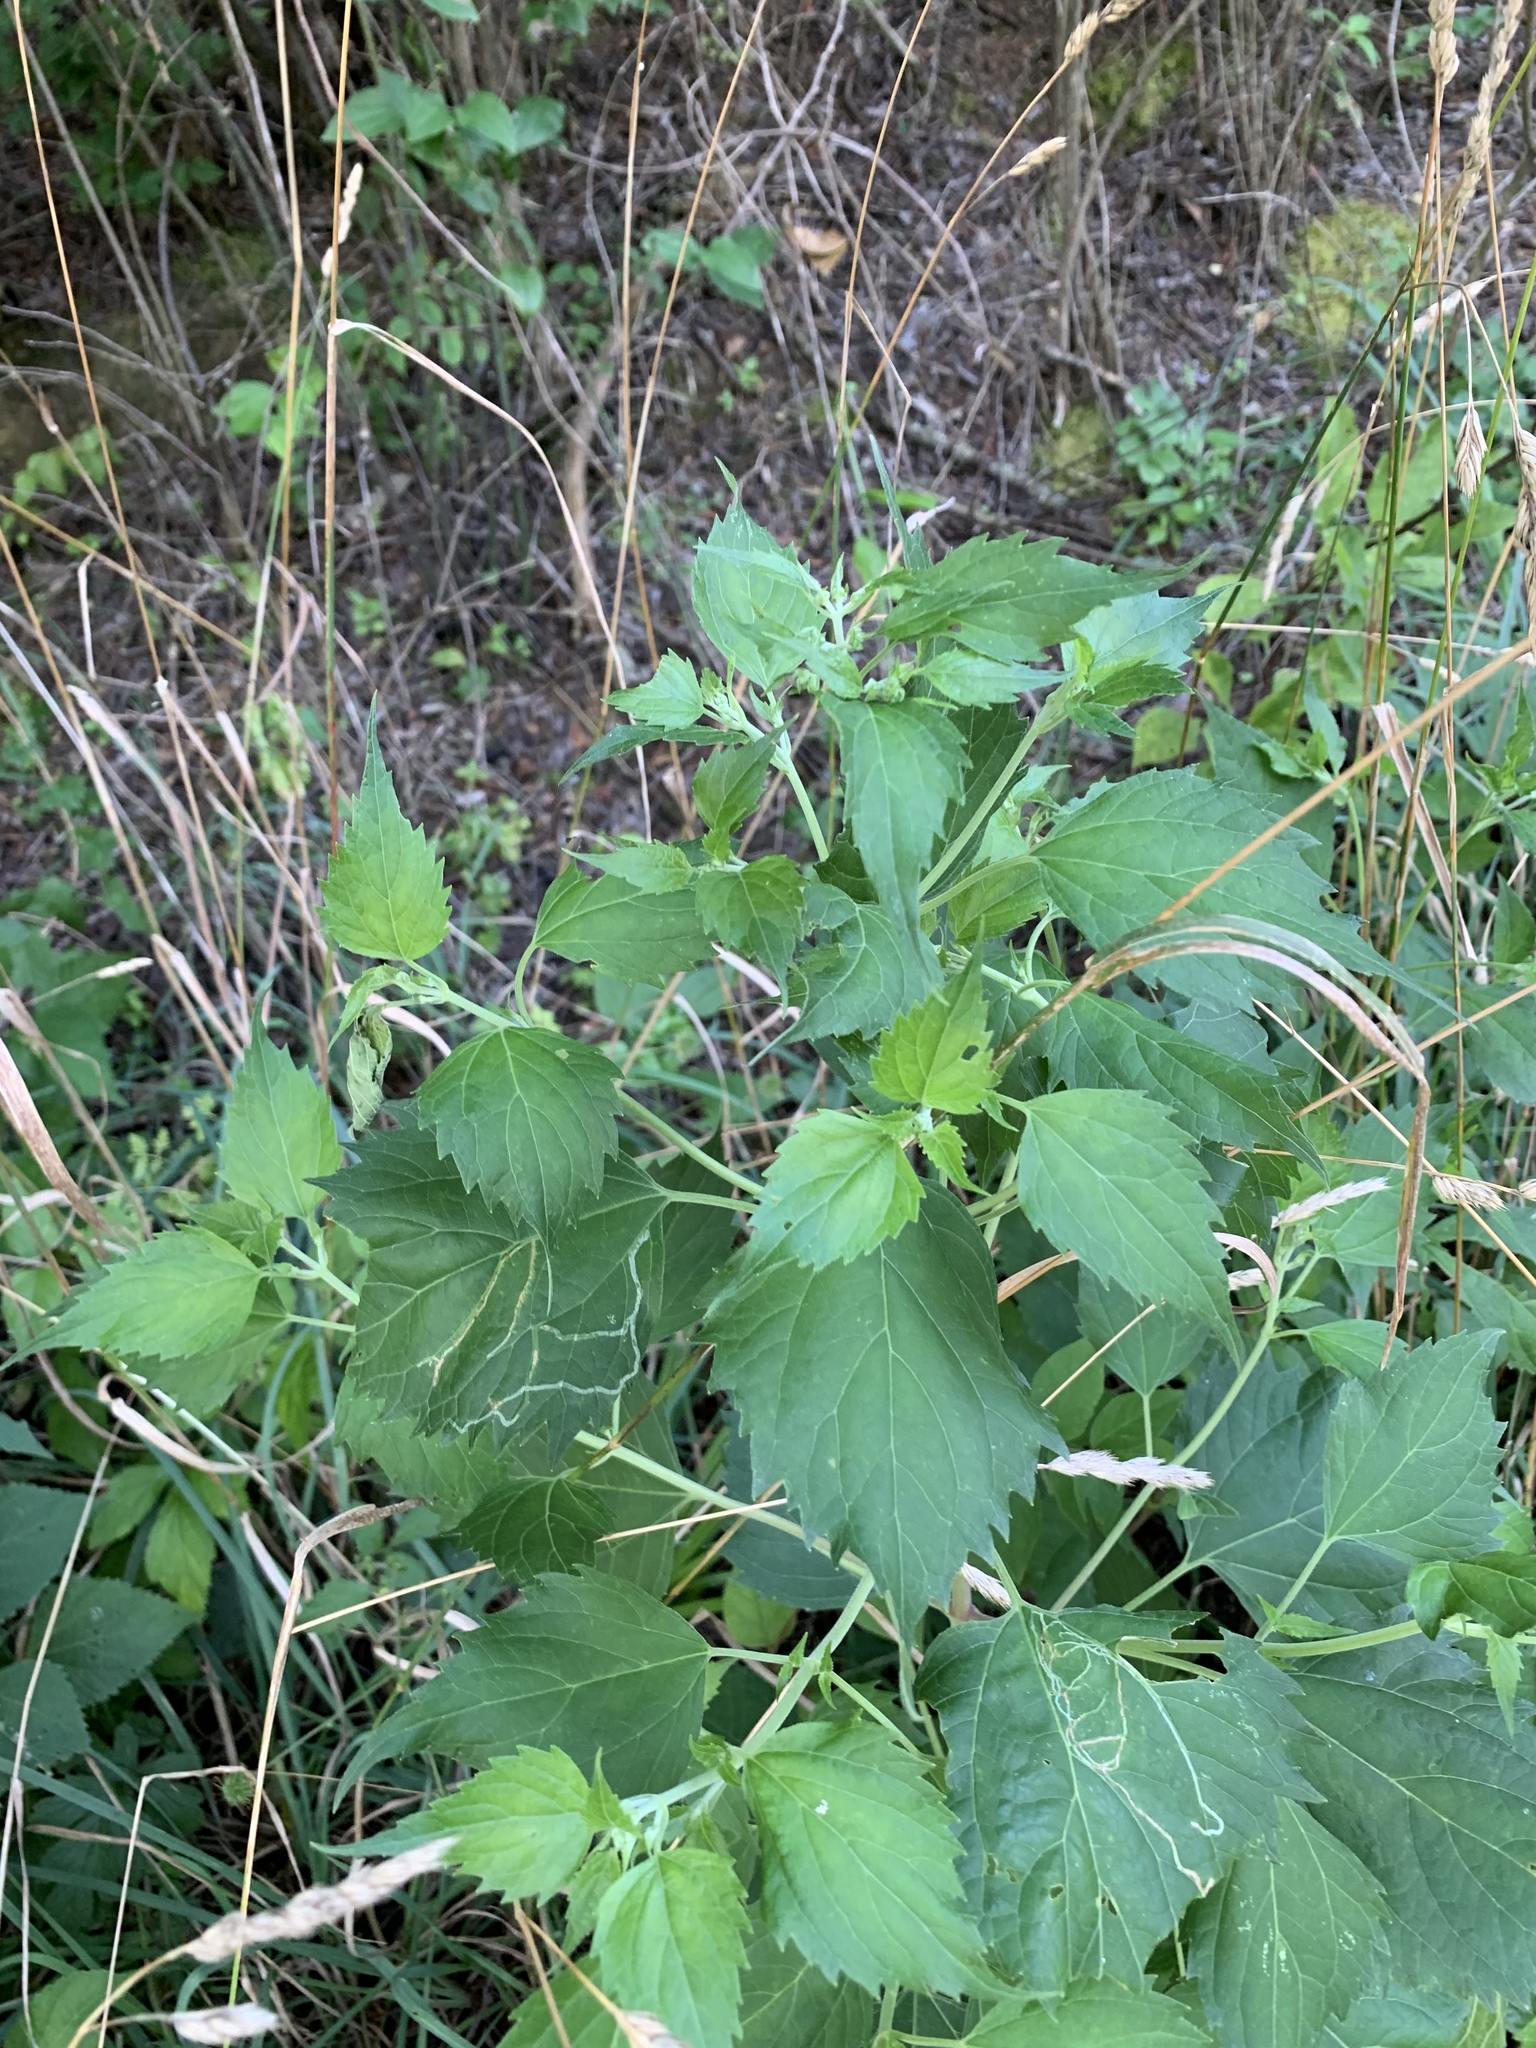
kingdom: Plantae
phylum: Tracheophyta
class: Magnoliopsida
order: Asterales
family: Asteraceae
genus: Ageratina
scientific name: Ageratina altissima
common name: White snakeroot
